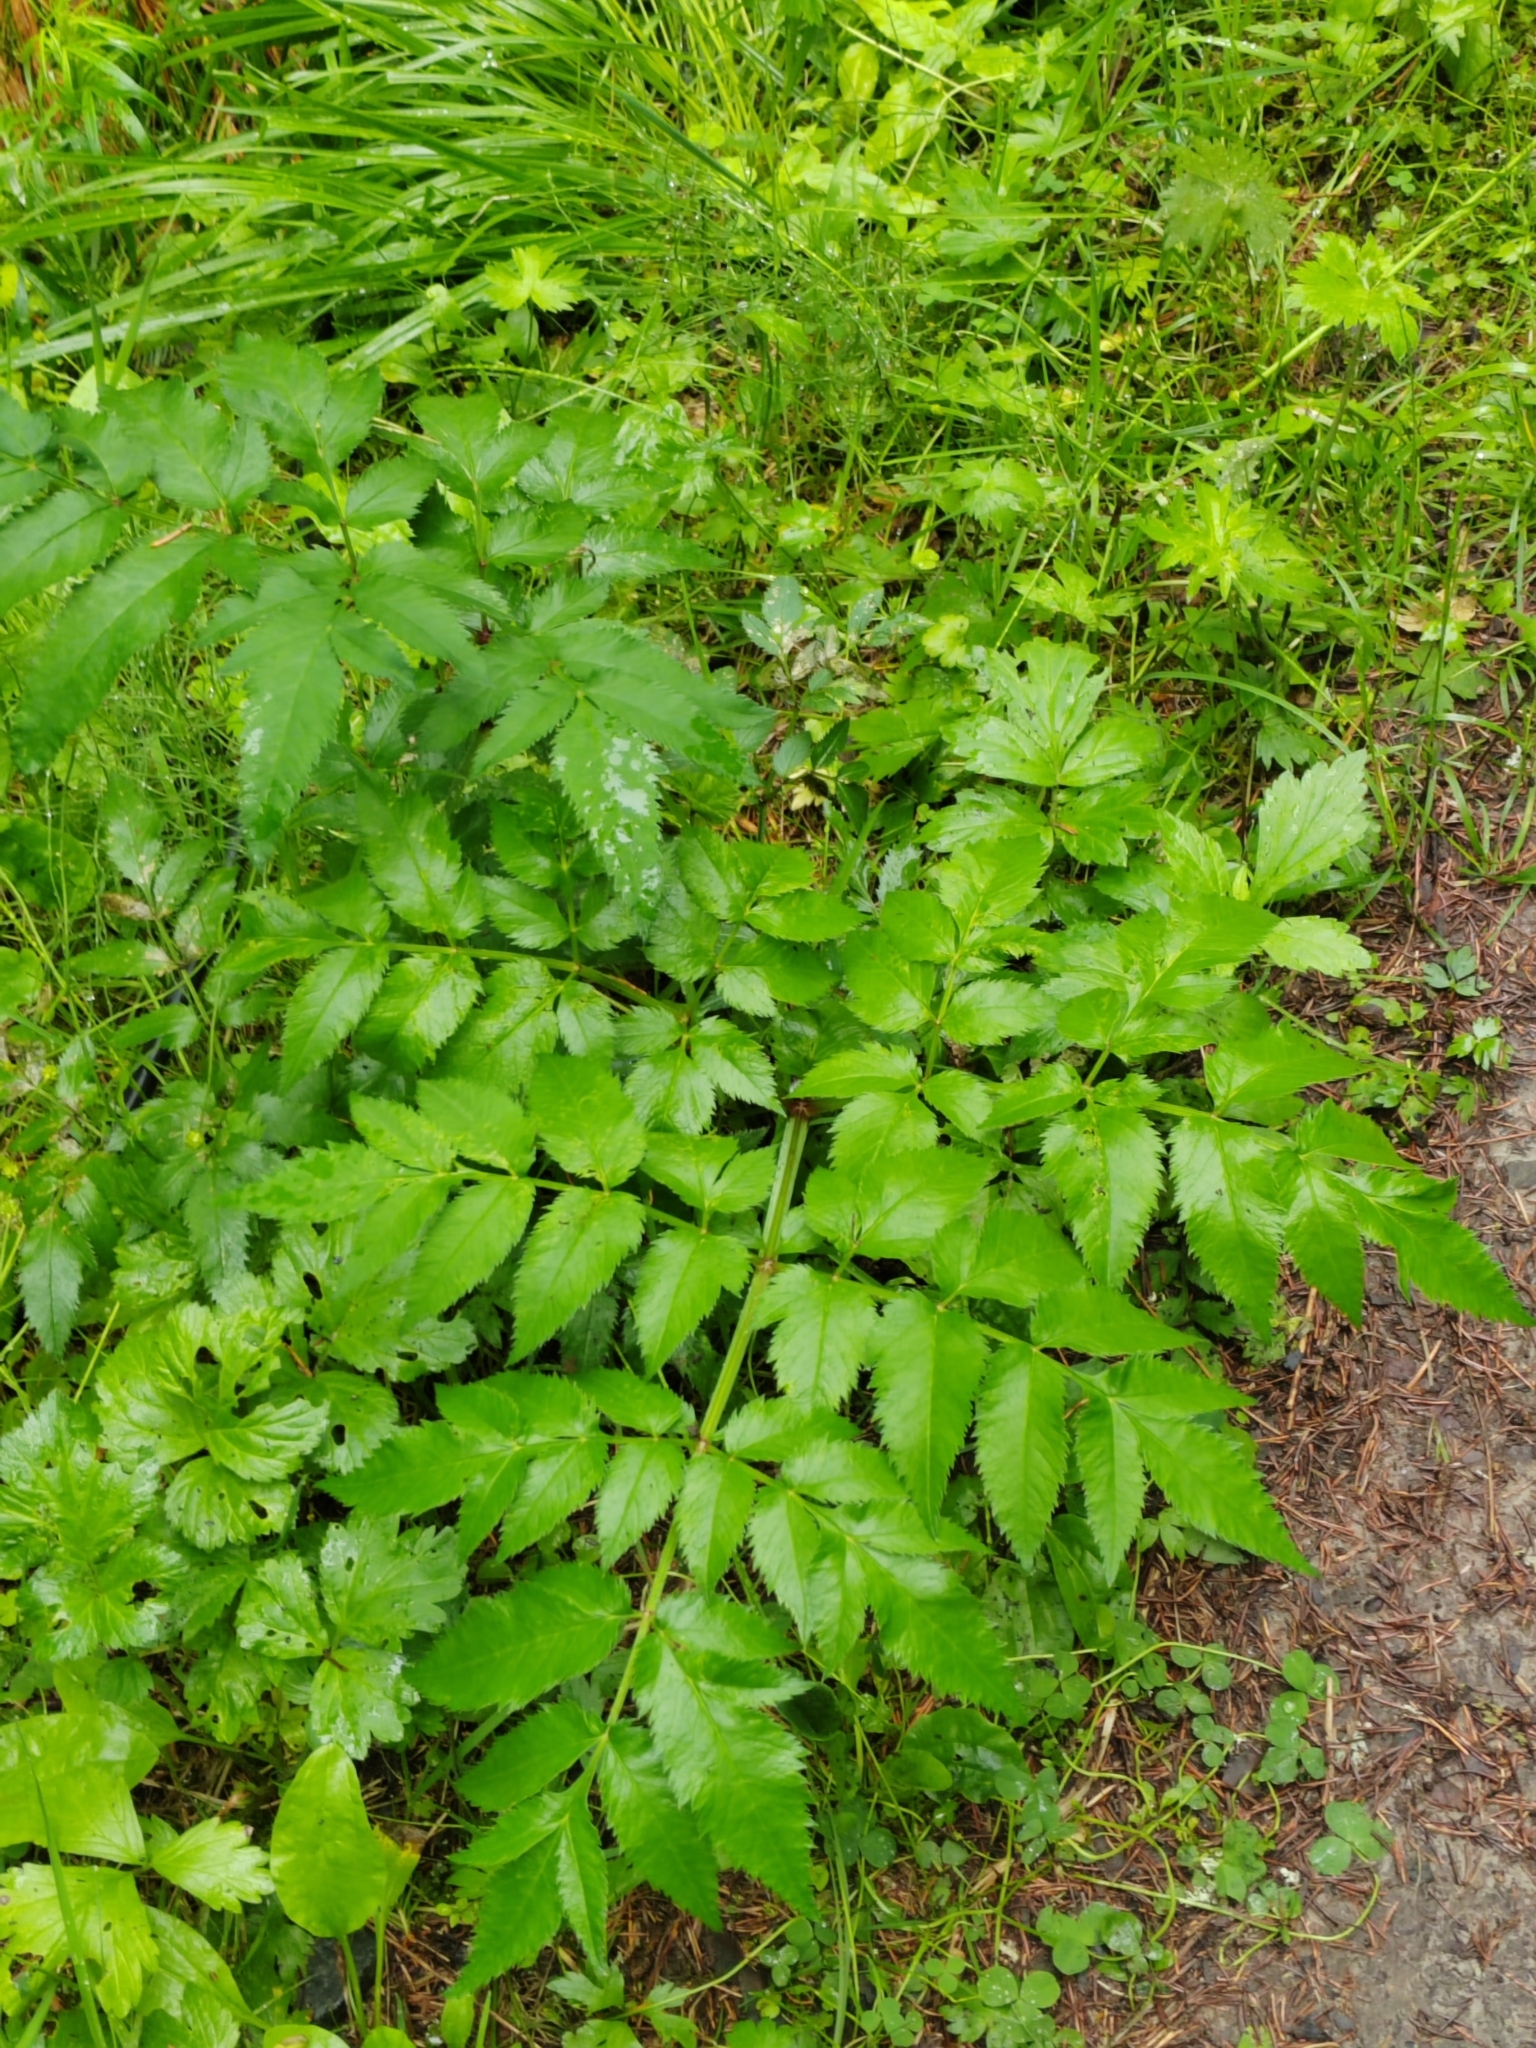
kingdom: Plantae
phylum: Tracheophyta
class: Magnoliopsida
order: Apiales
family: Apiaceae
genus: Angelica
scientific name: Angelica sylvestris
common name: Wild angelica
